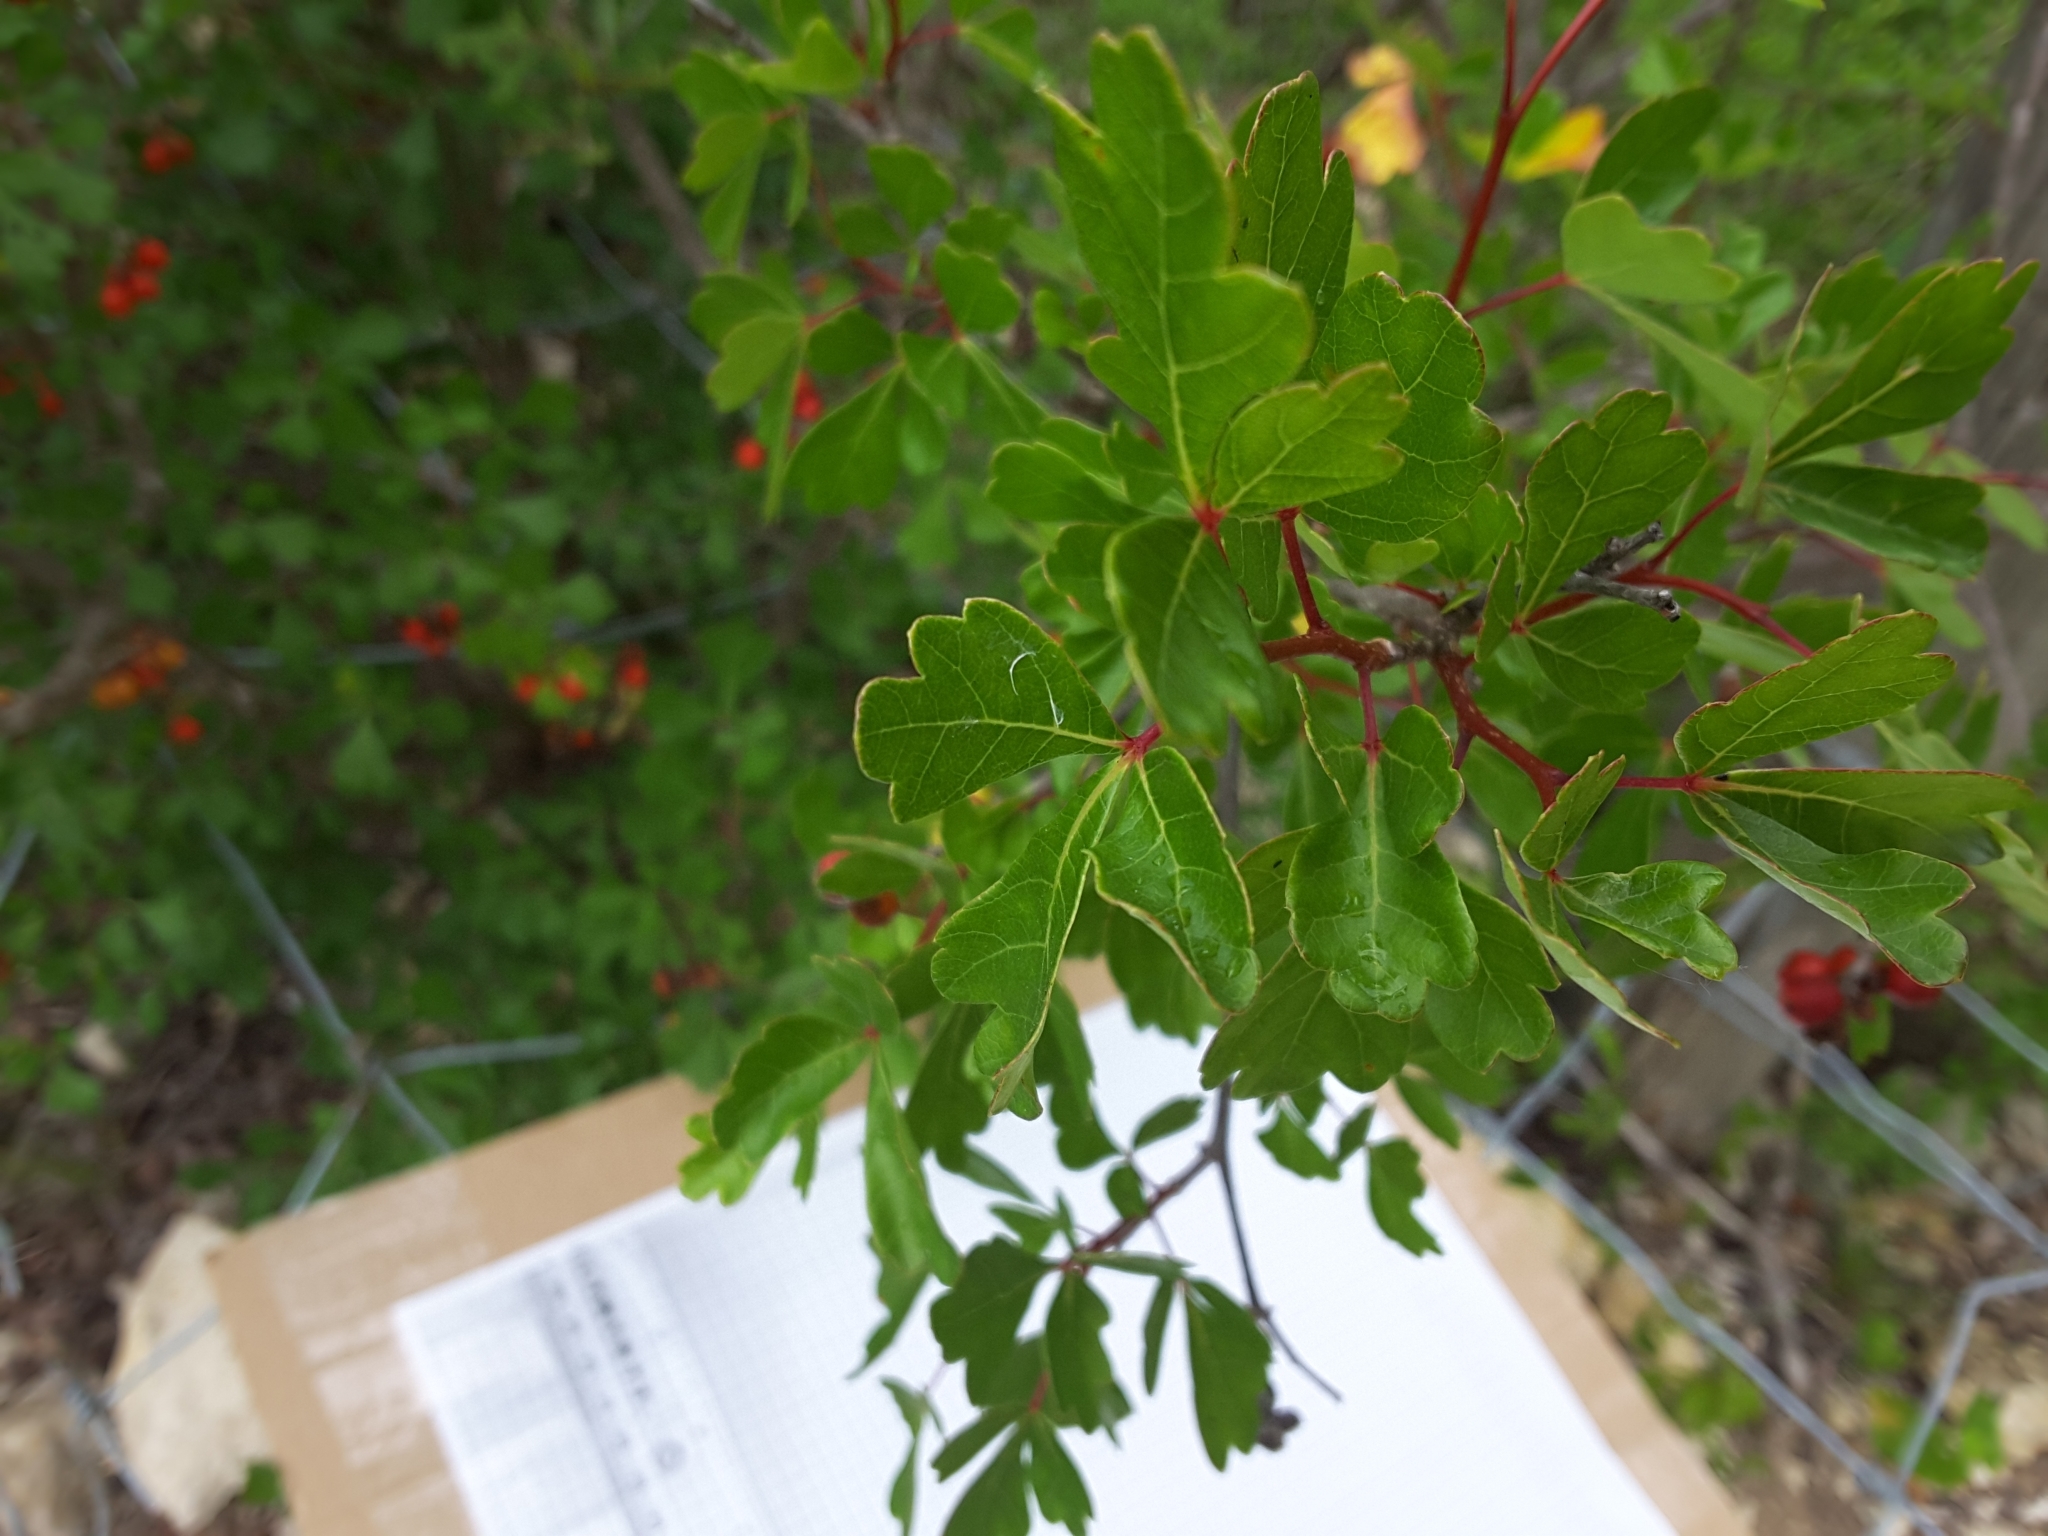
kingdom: Plantae
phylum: Tracheophyta
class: Magnoliopsida
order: Sapindales
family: Anacardiaceae
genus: Rhus
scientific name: Rhus aromatica
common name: Aromatic sumac
